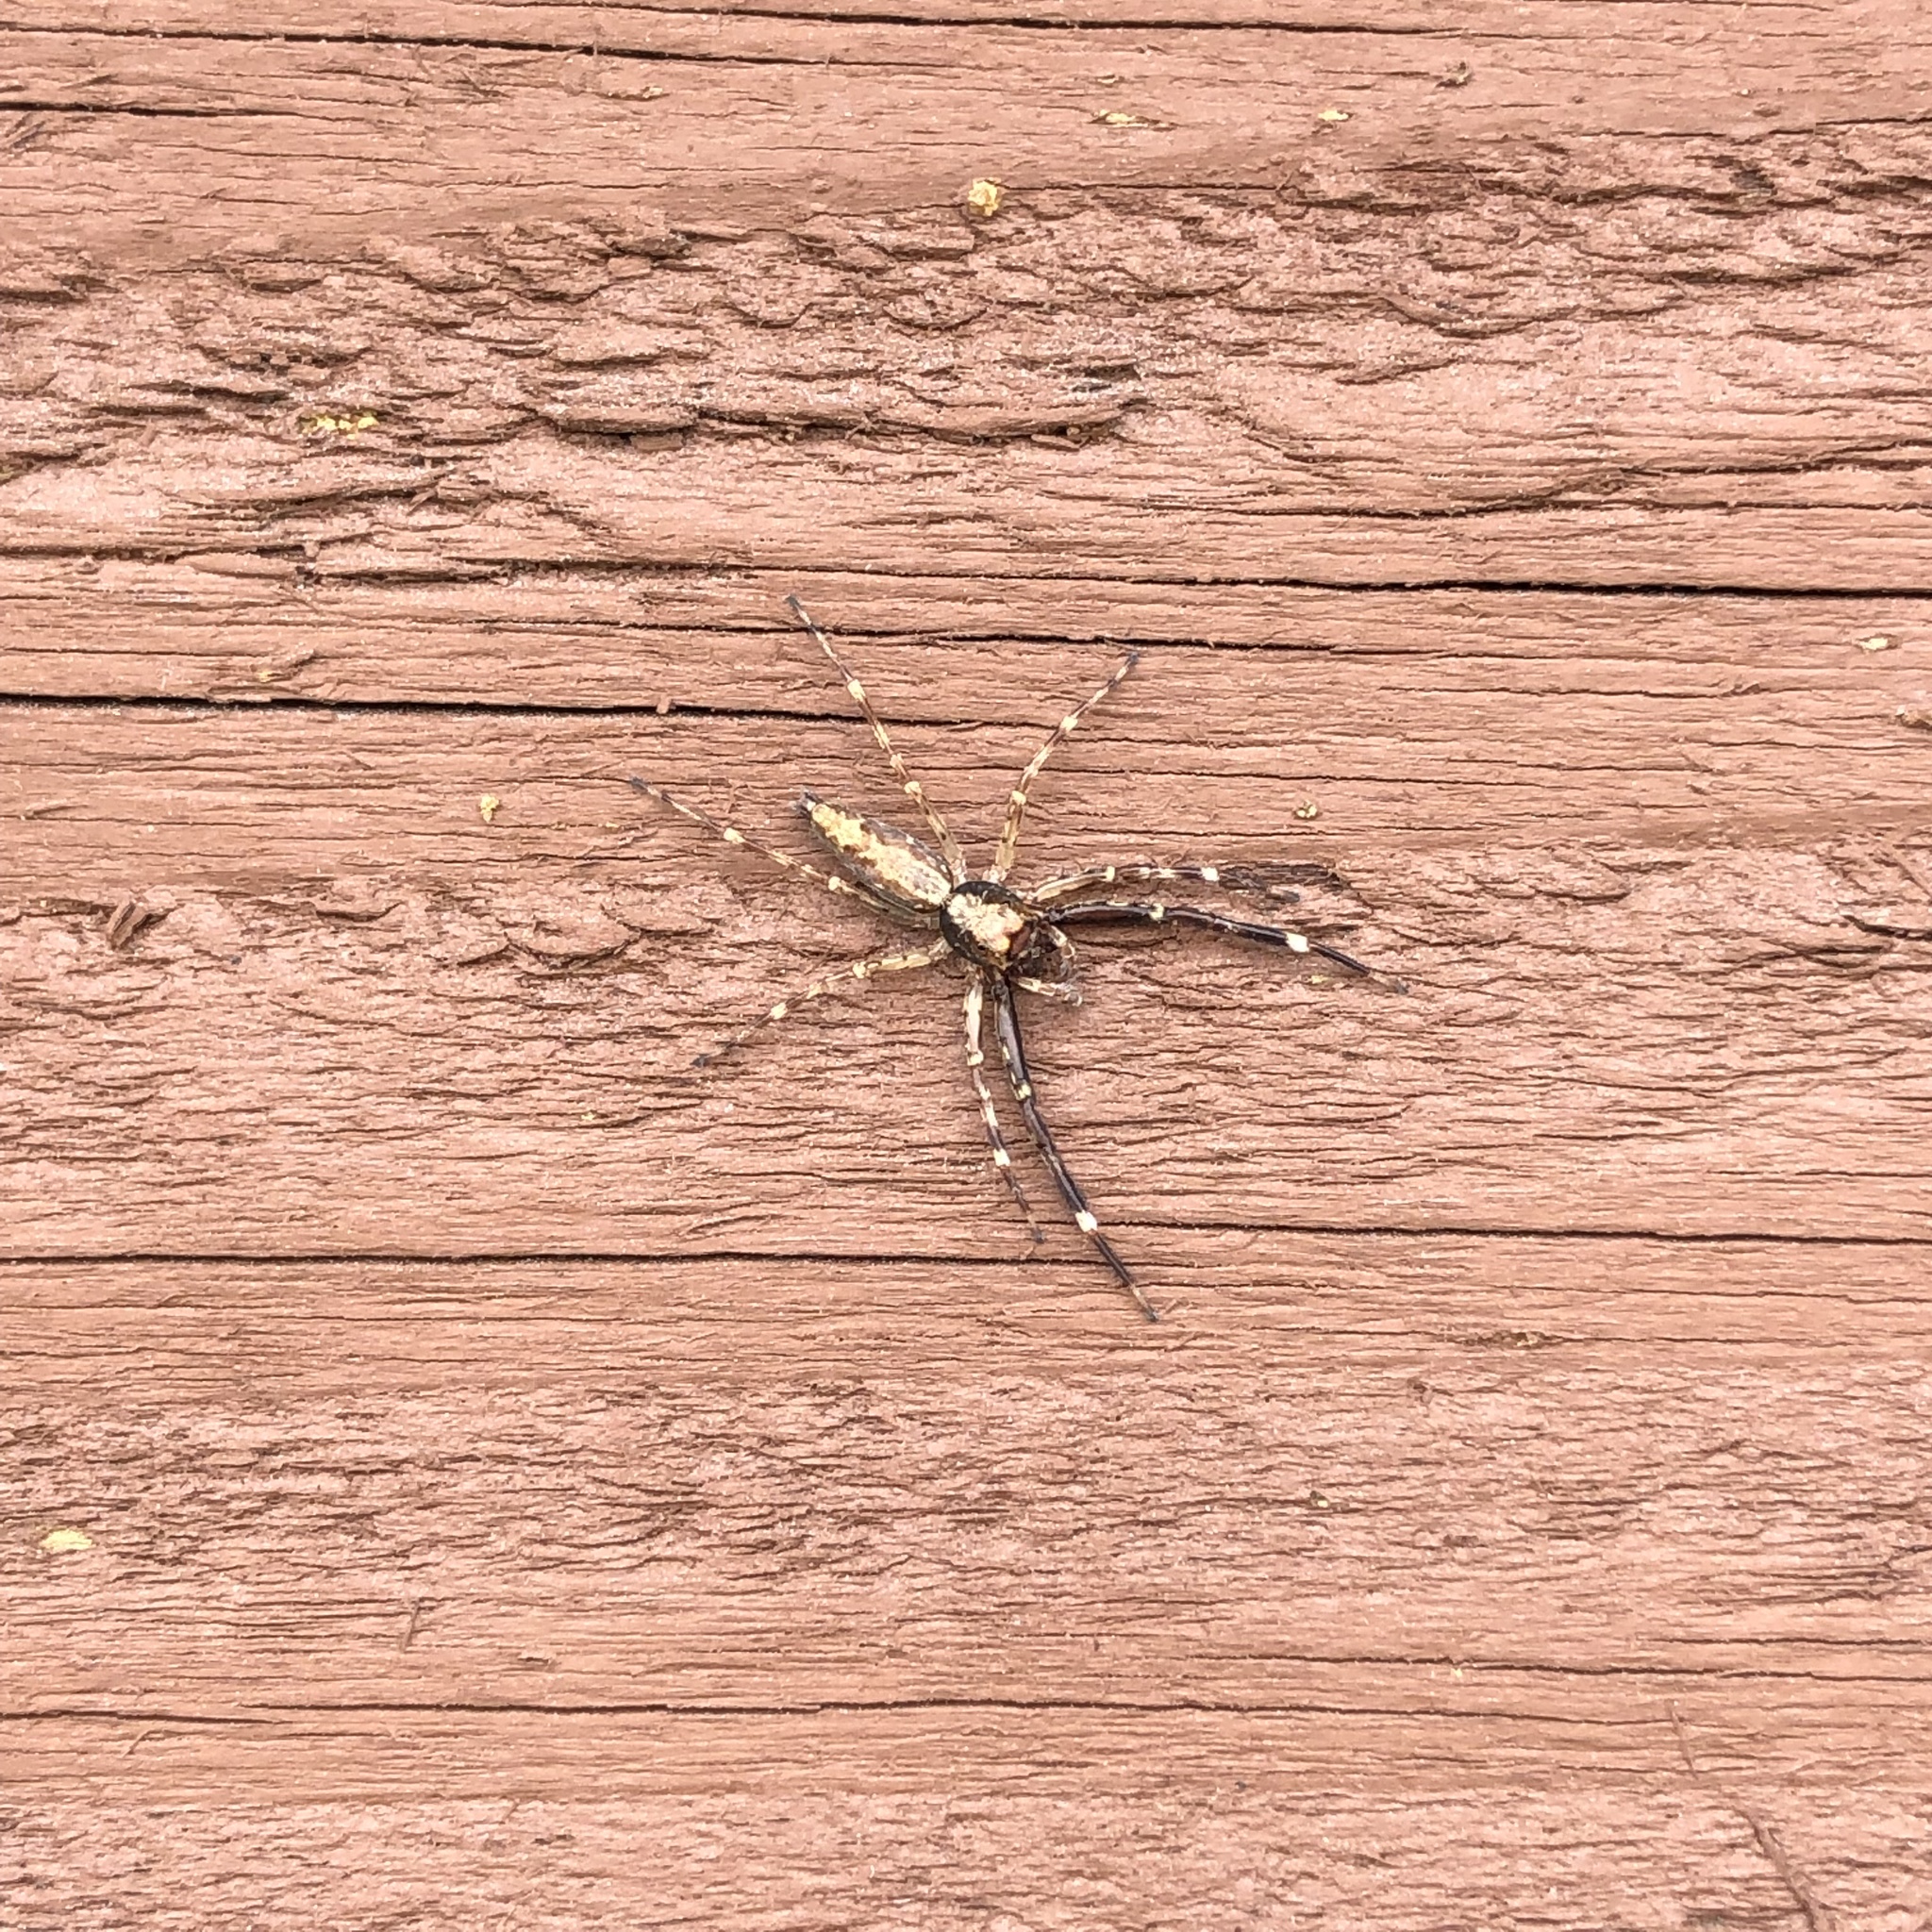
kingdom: Animalia
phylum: Arthropoda
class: Arachnida
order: Araneae
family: Salticidae
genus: Helpis
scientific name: Helpis minitabunda
